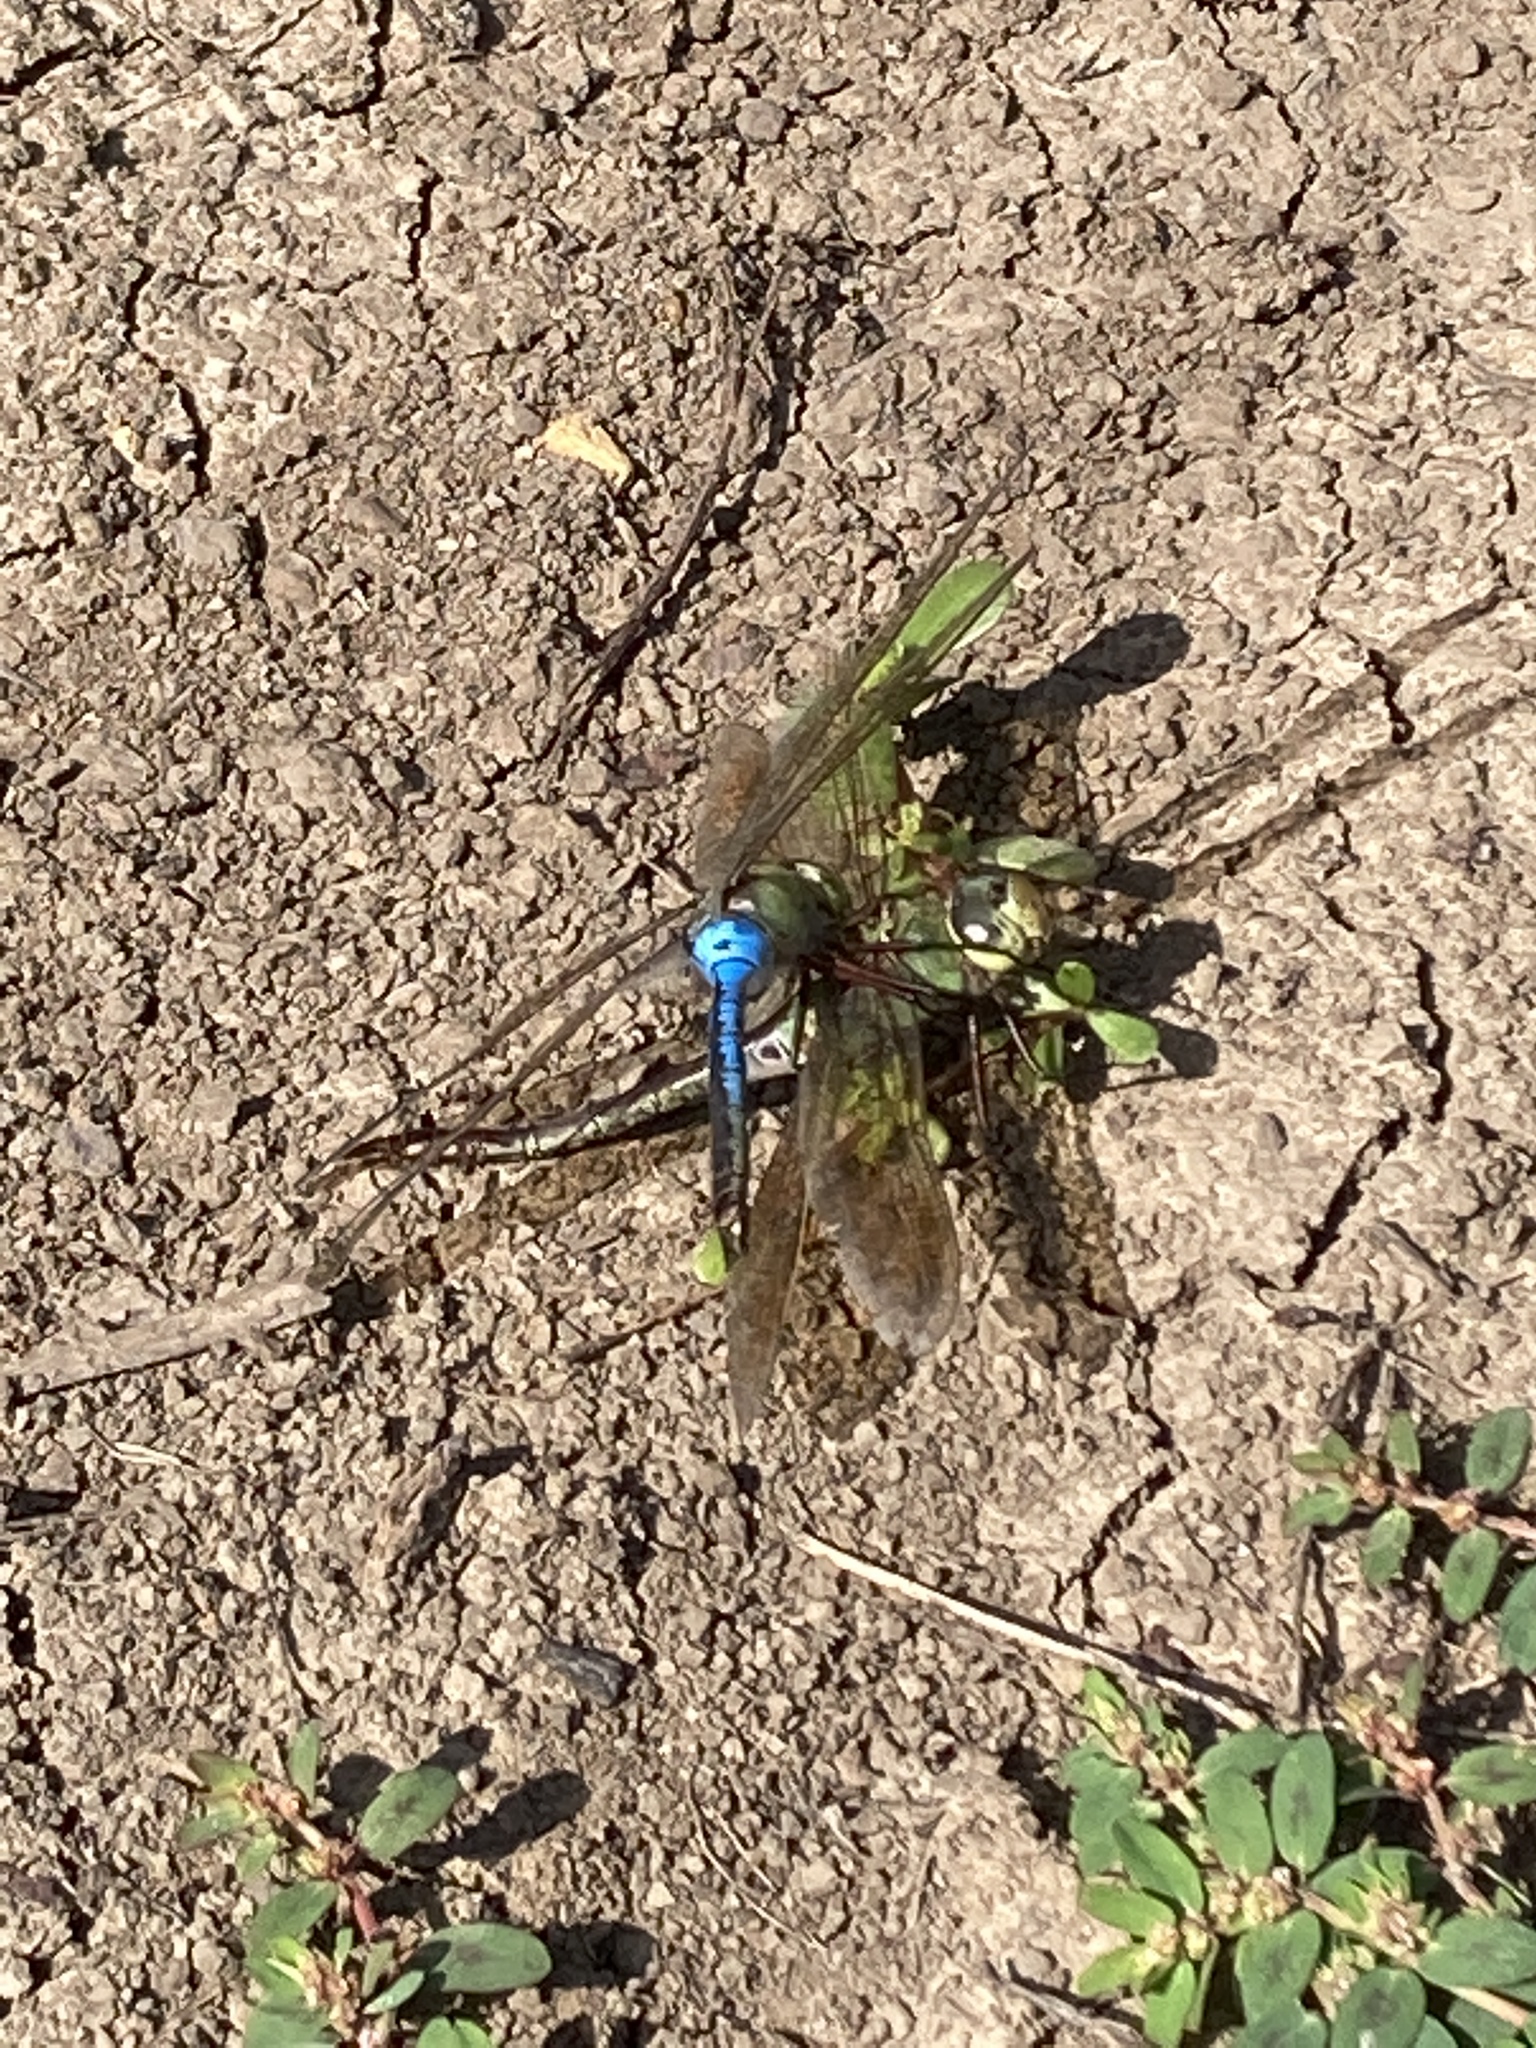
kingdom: Animalia
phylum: Arthropoda
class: Insecta
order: Odonata
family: Aeshnidae
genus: Anax
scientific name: Anax junius
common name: Common green darner
